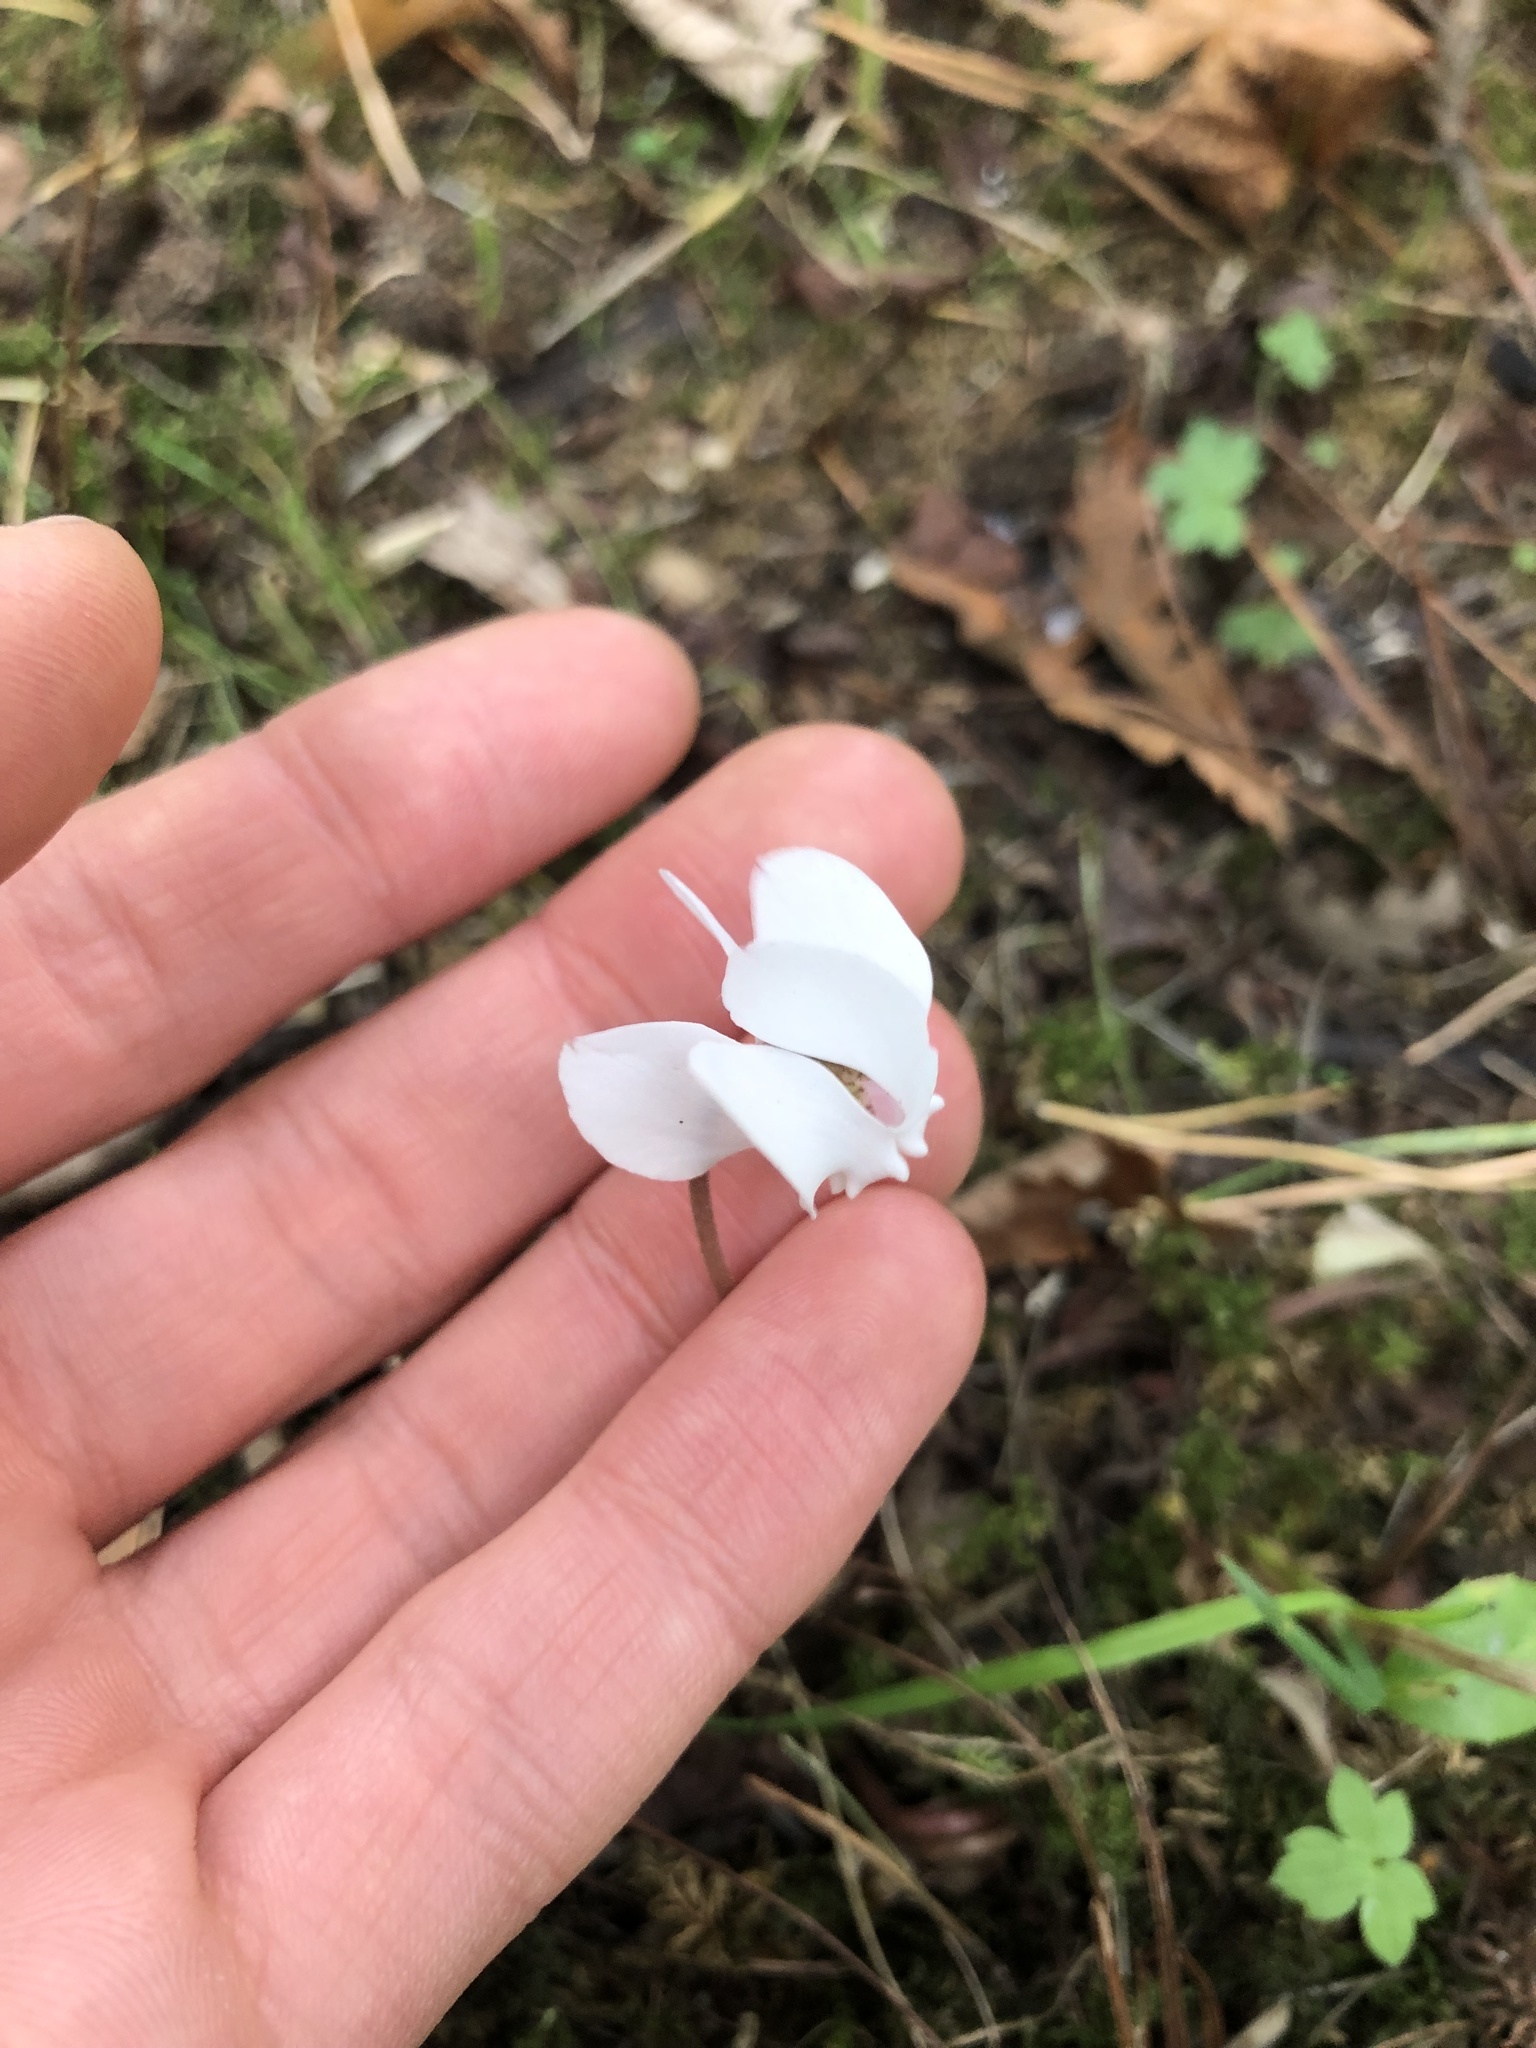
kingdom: Plantae
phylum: Tracheophyta
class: Magnoliopsida
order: Ericales
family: Primulaceae
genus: Cyclamen
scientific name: Cyclamen hederifolium
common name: Sowbread
